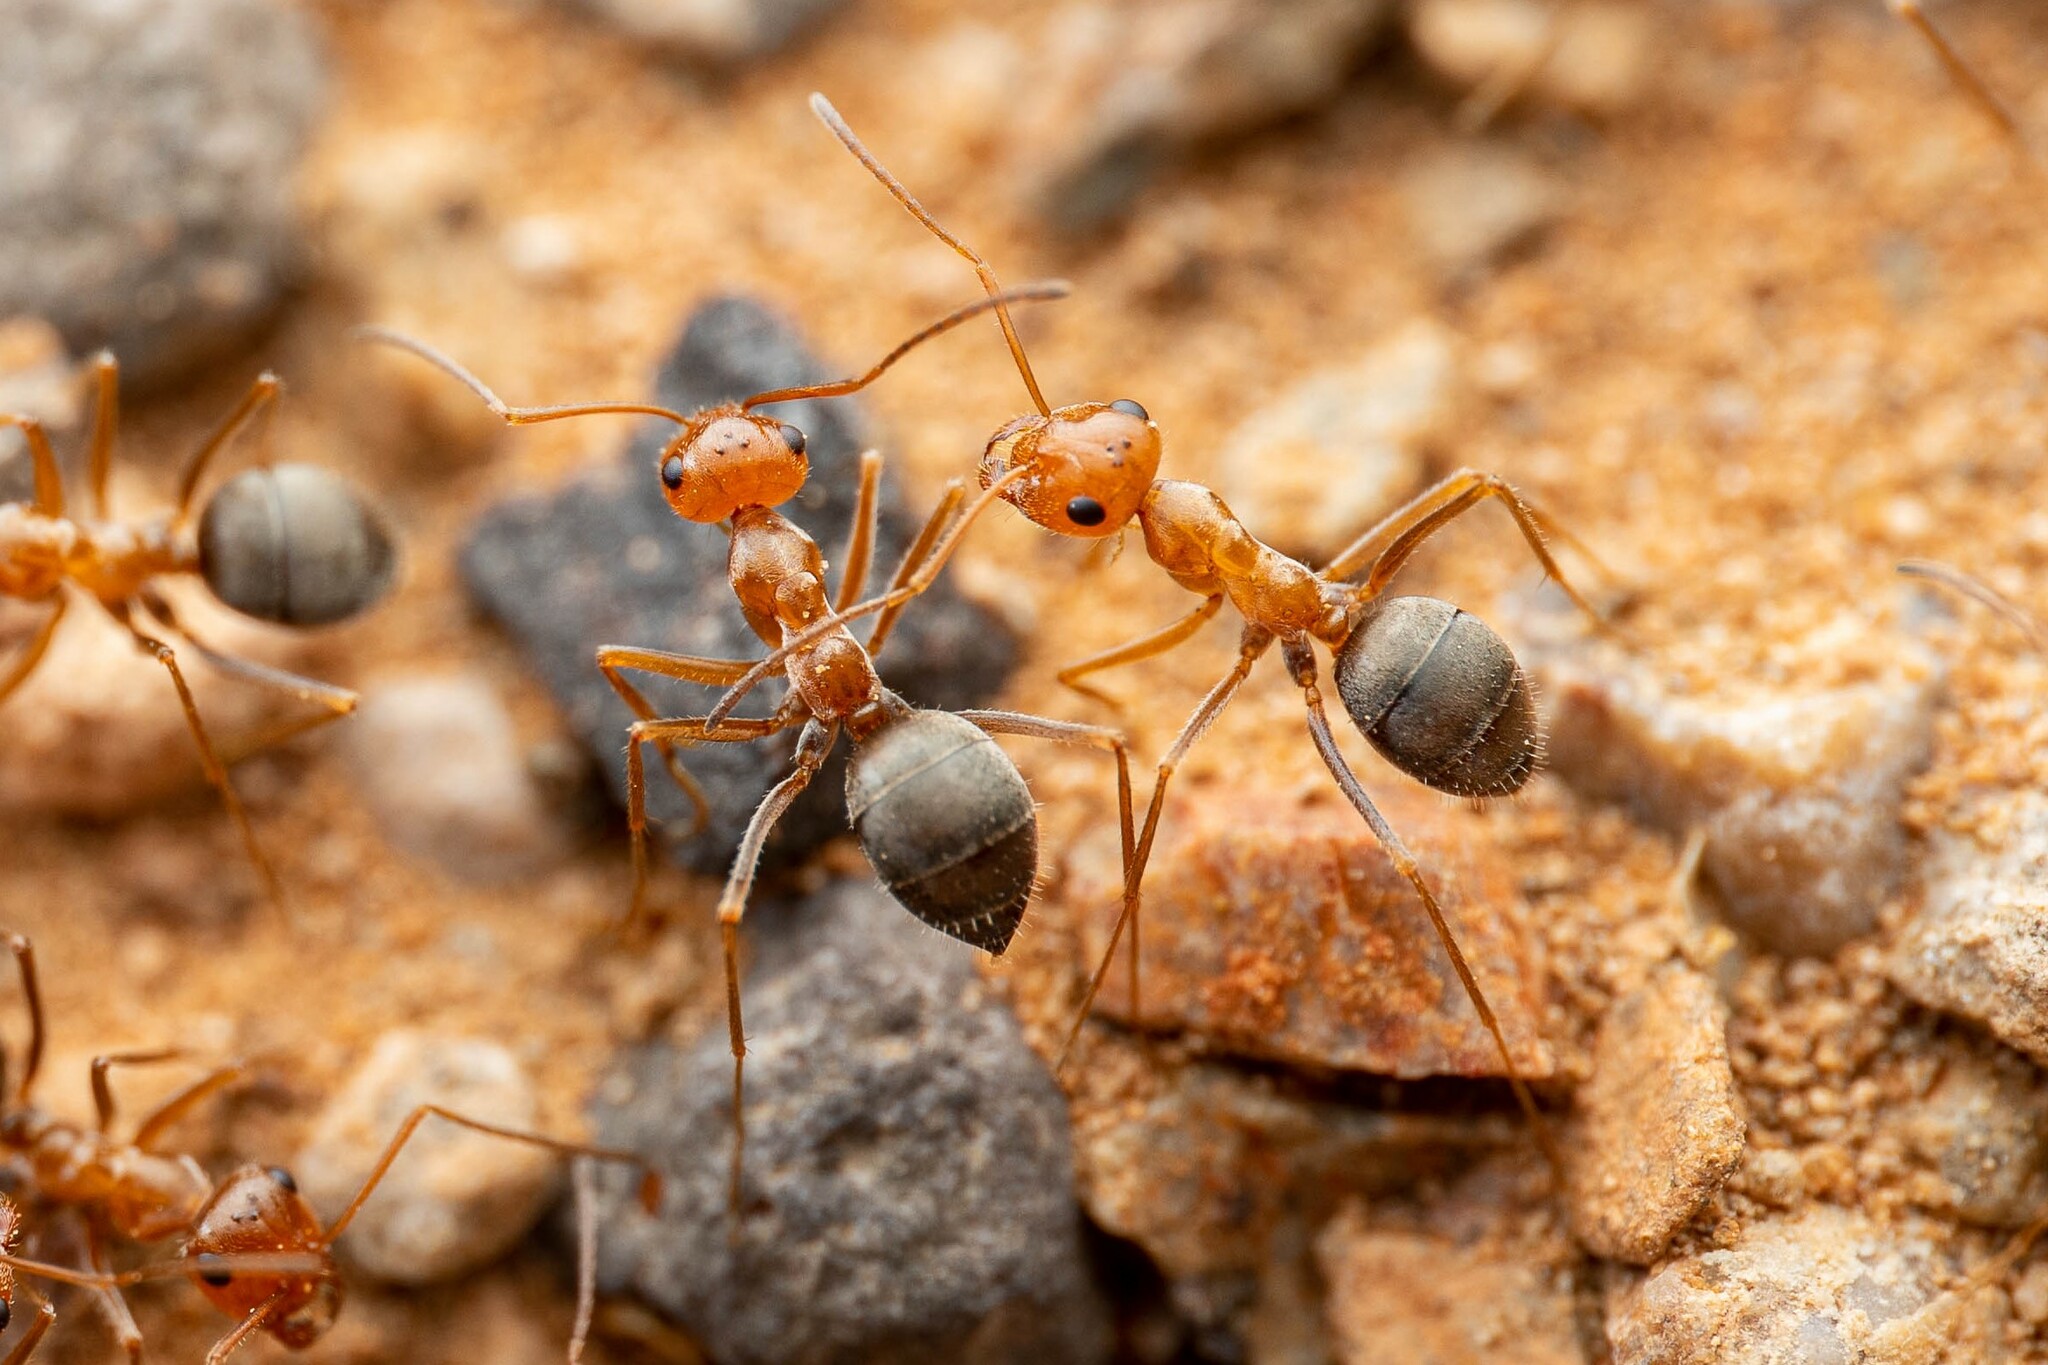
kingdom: Animalia
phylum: Arthropoda
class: Insecta
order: Hymenoptera
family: Formicidae
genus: Endiodioctes
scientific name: Endiodioctes
